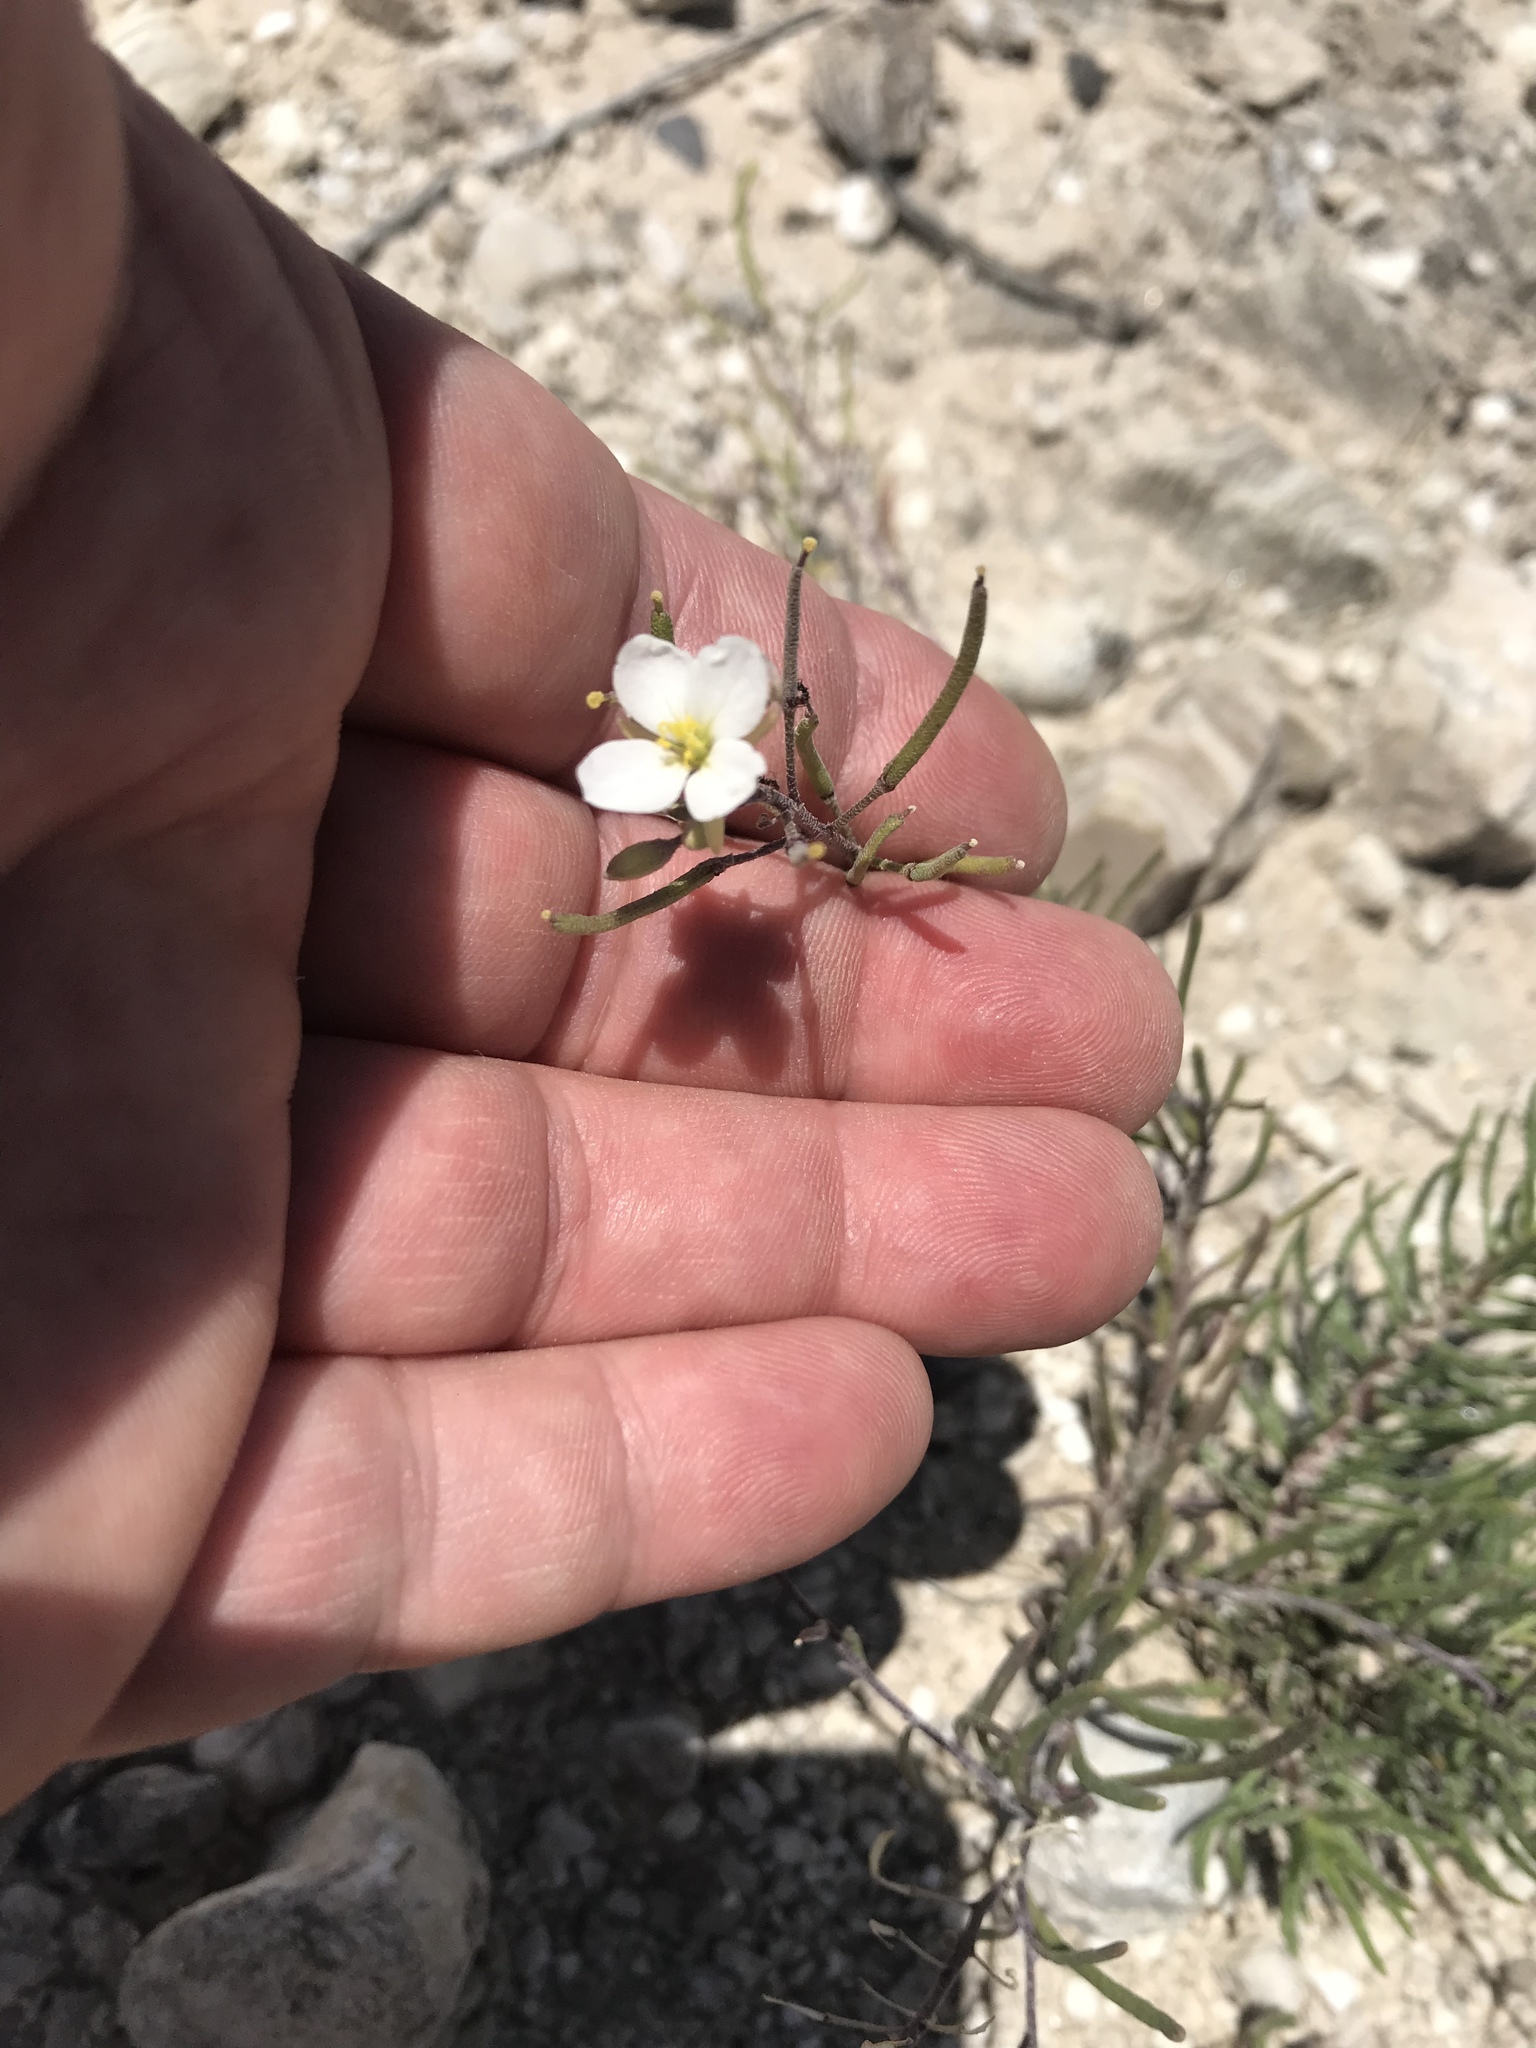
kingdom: Plantae
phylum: Tracheophyta
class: Magnoliopsida
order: Brassicales
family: Brassicaceae
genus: Nerisyrenia
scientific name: Nerisyrenia linearifolia
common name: White sands fan mustard
